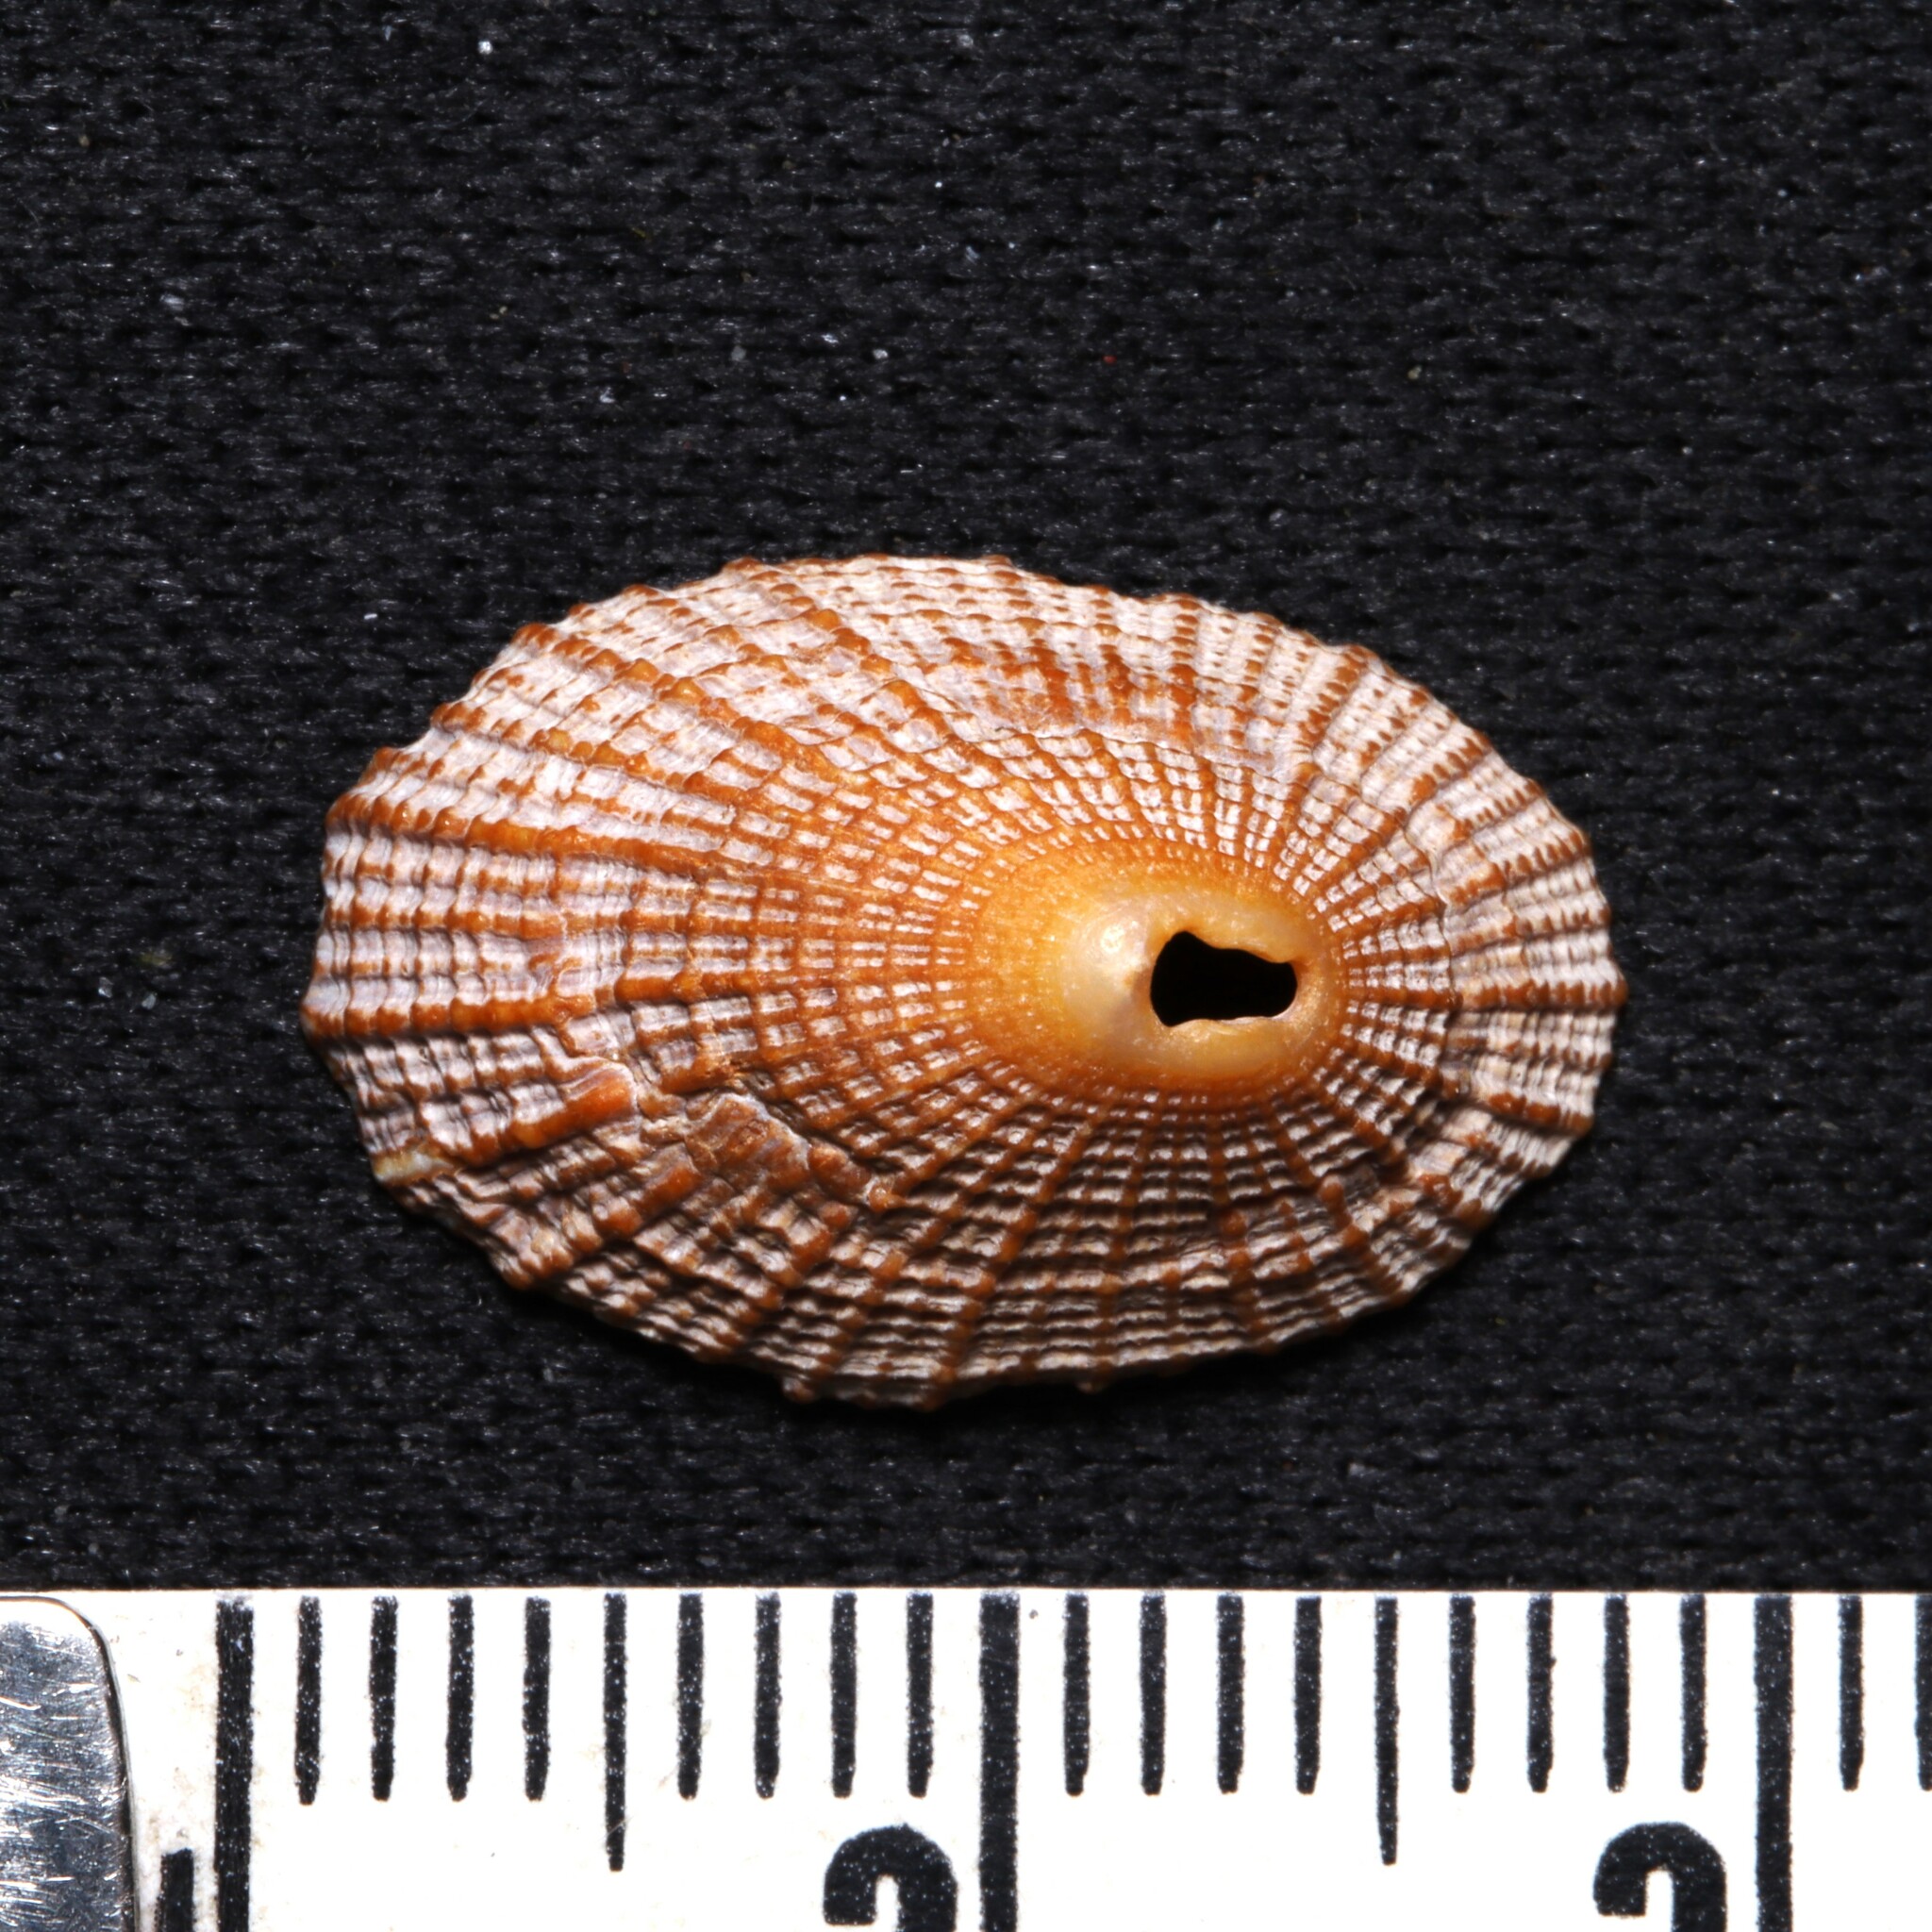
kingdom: Animalia
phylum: Mollusca
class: Gastropoda
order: Lepetellida
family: Fissurellidae
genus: Diodora
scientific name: Diodora cayenensis
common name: Cayenne keyhole limpet
